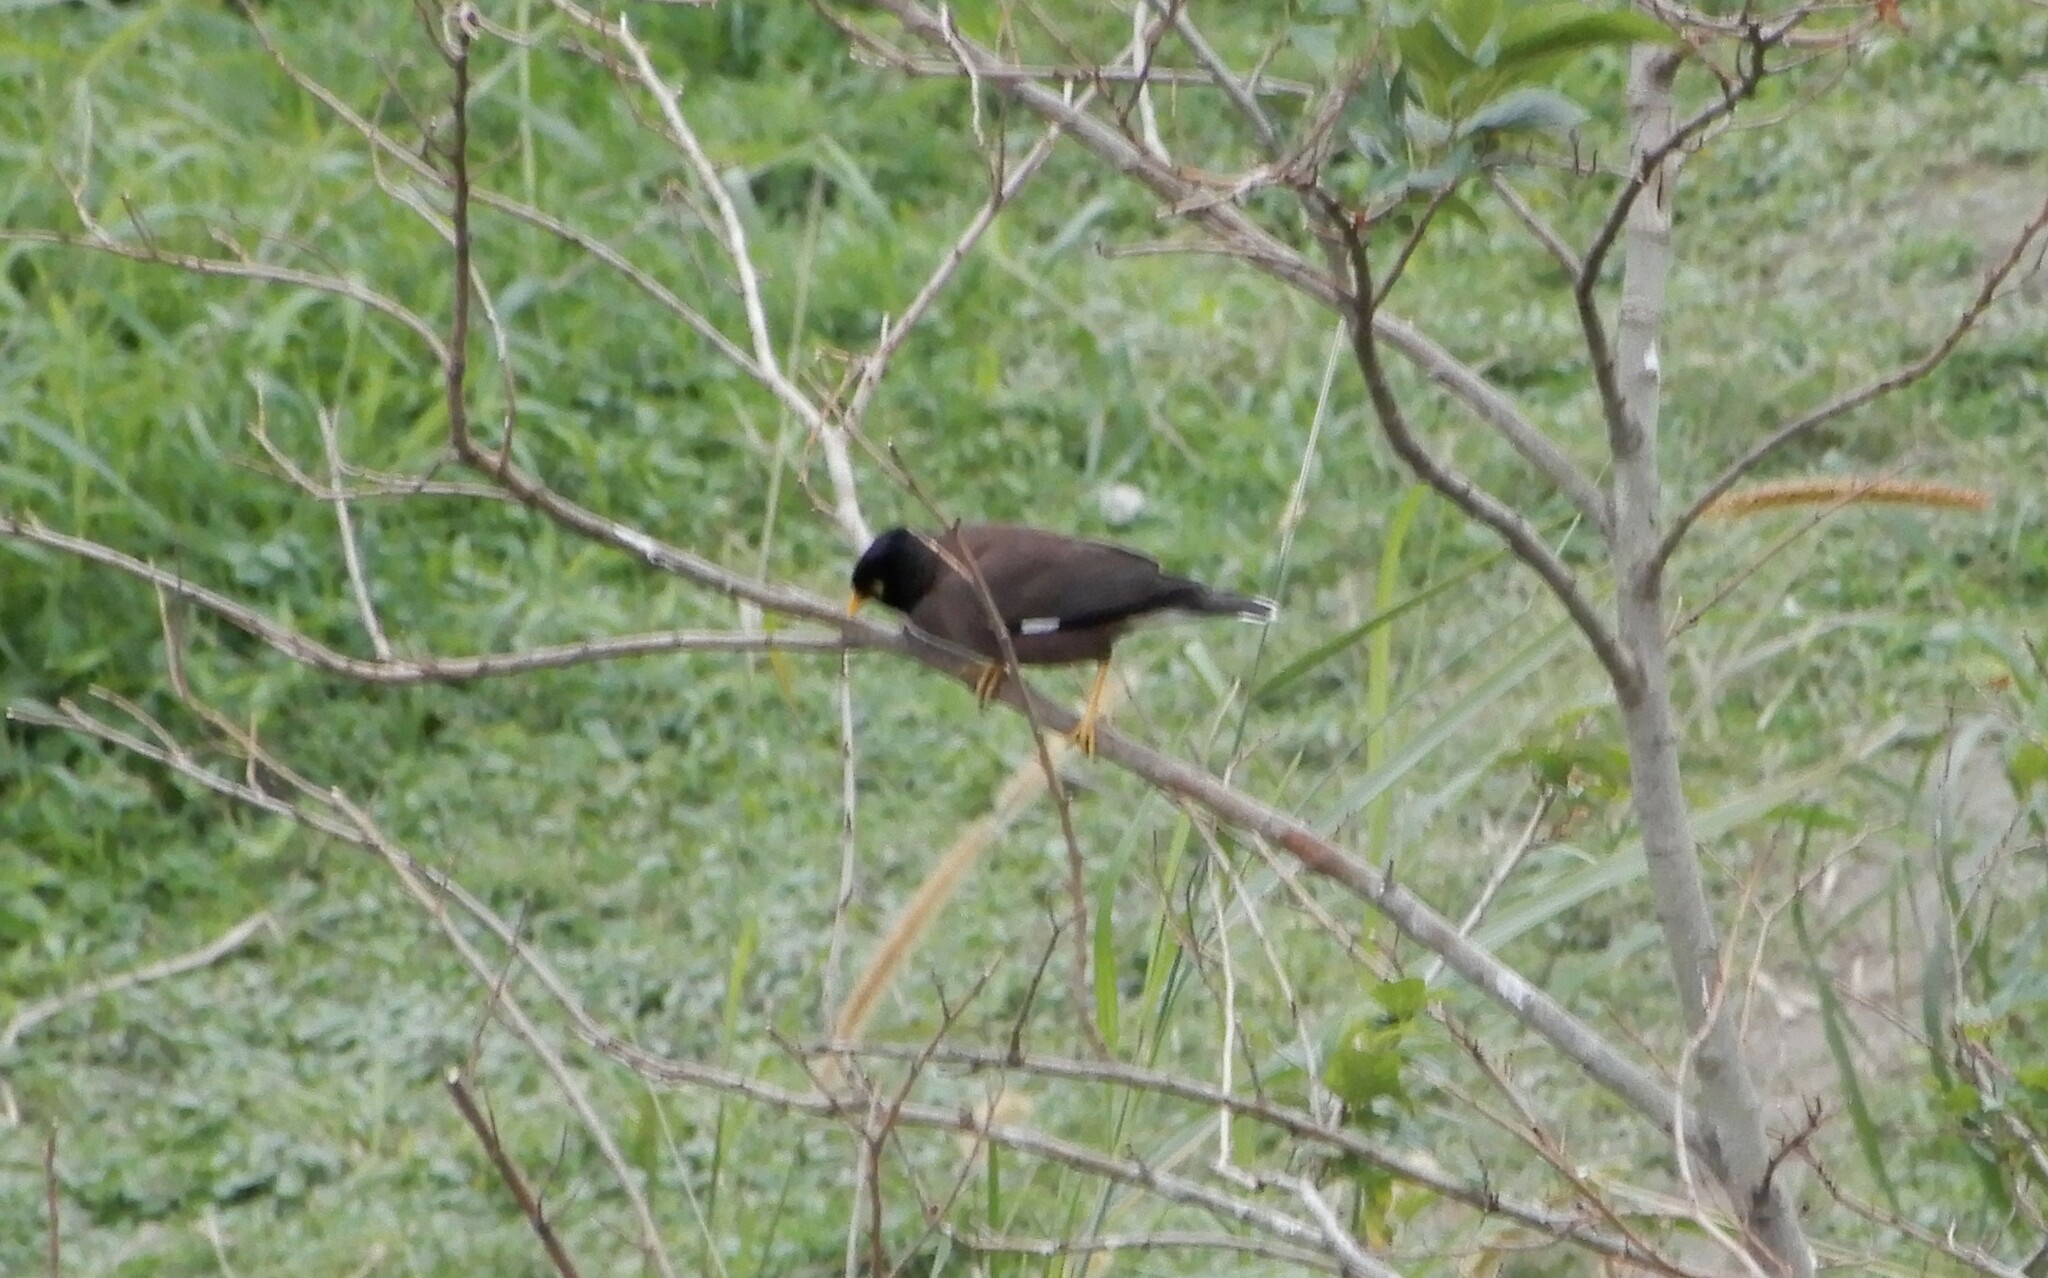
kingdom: Animalia
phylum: Chordata
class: Aves
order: Passeriformes
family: Sturnidae
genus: Acridotheres
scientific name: Acridotheres tristis
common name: Common myna
